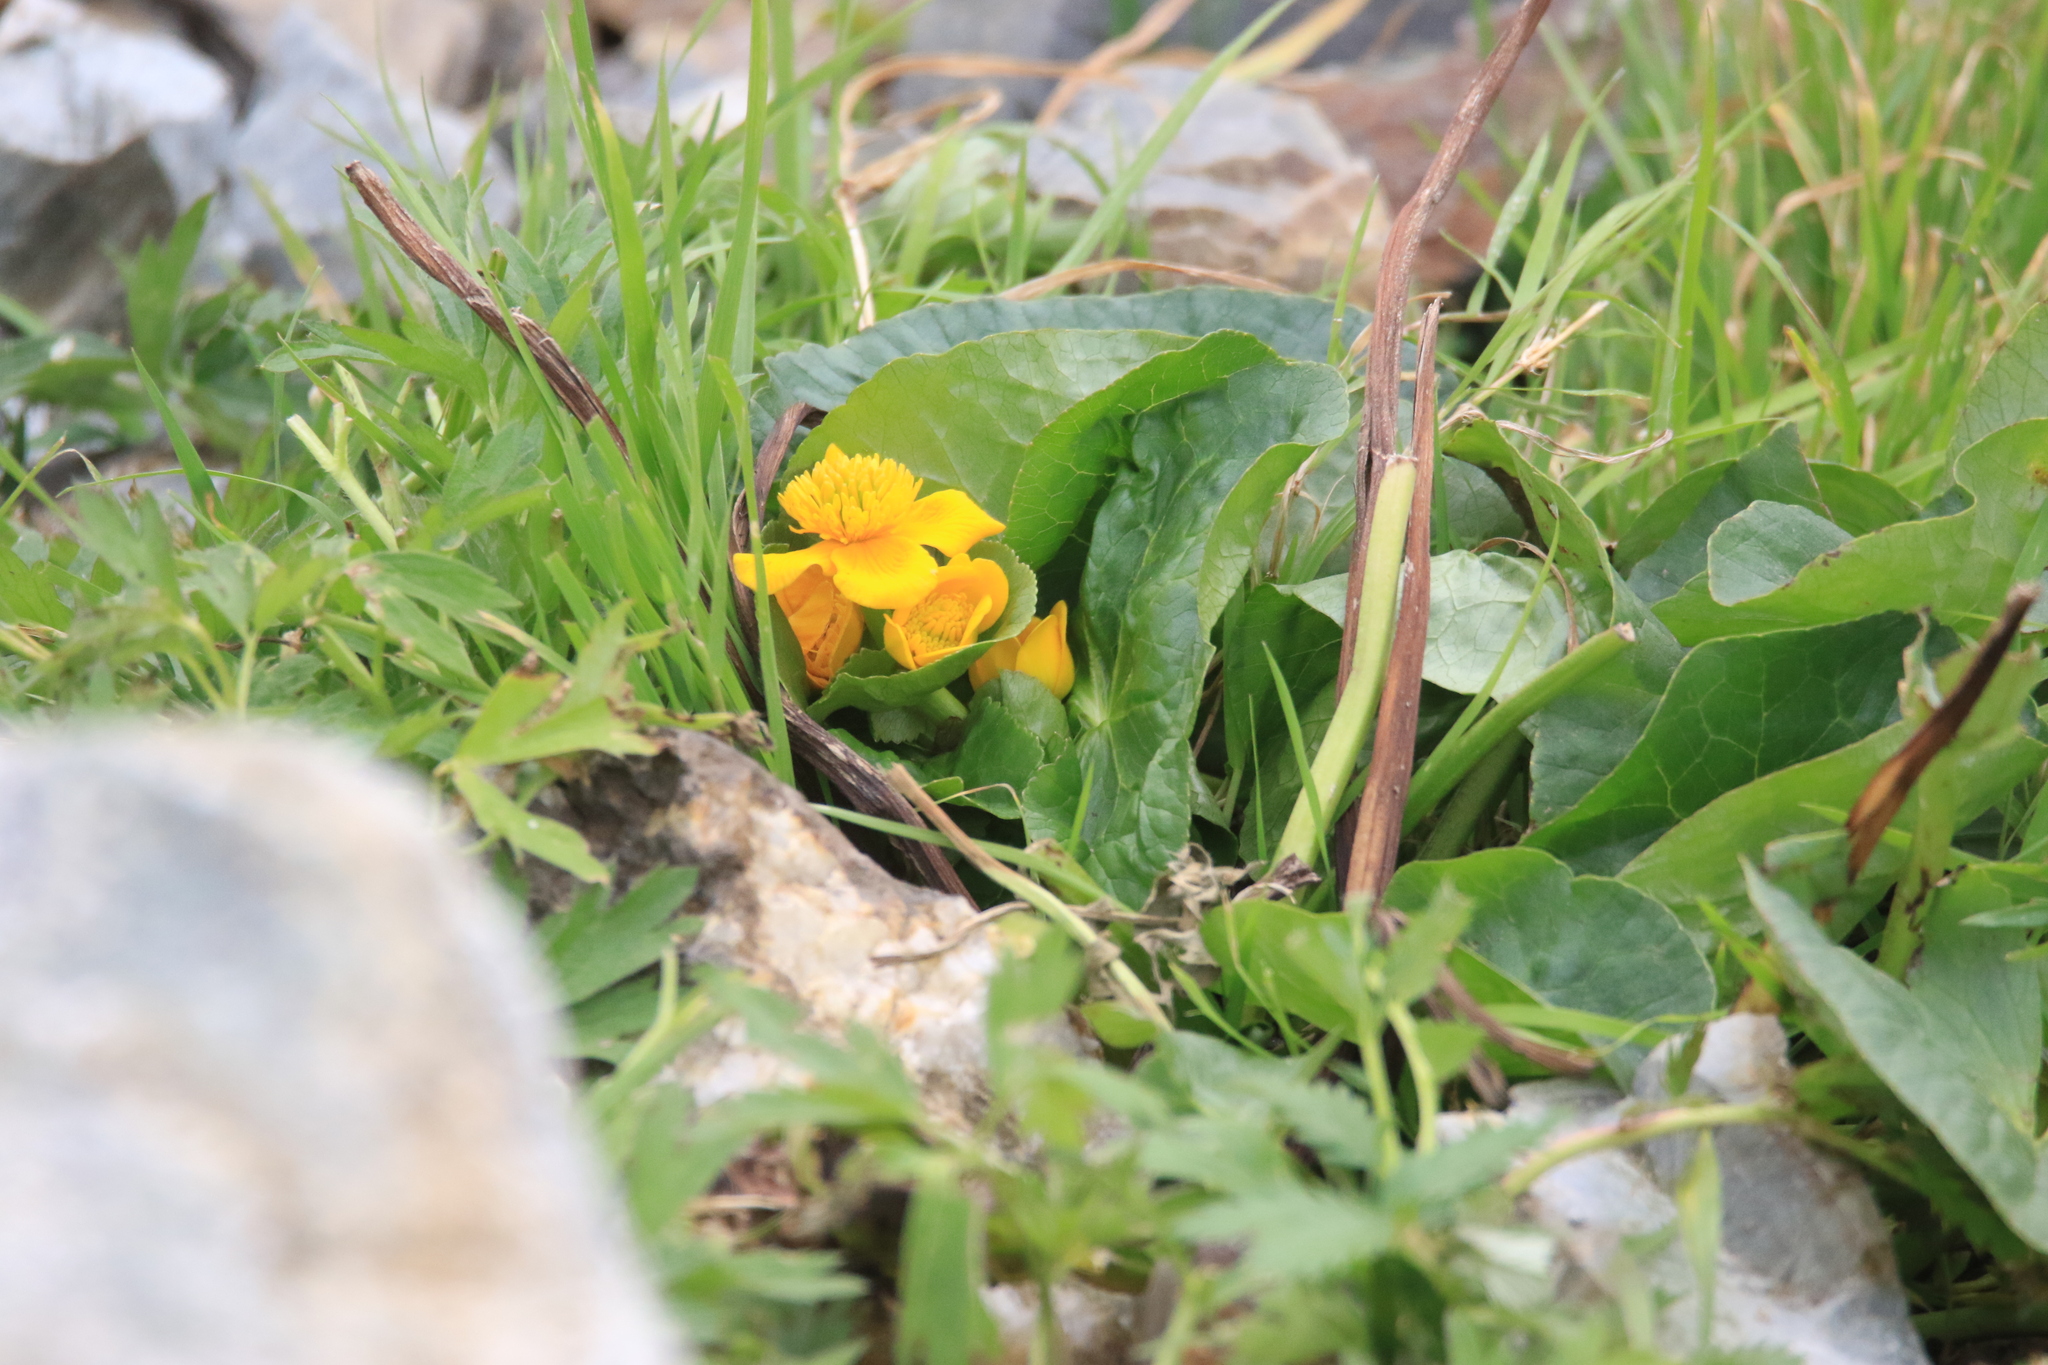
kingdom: Plantae
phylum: Tracheophyta
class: Magnoliopsida
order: Ranunculales
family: Ranunculaceae
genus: Caltha
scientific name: Caltha palustris
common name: Marsh marigold
